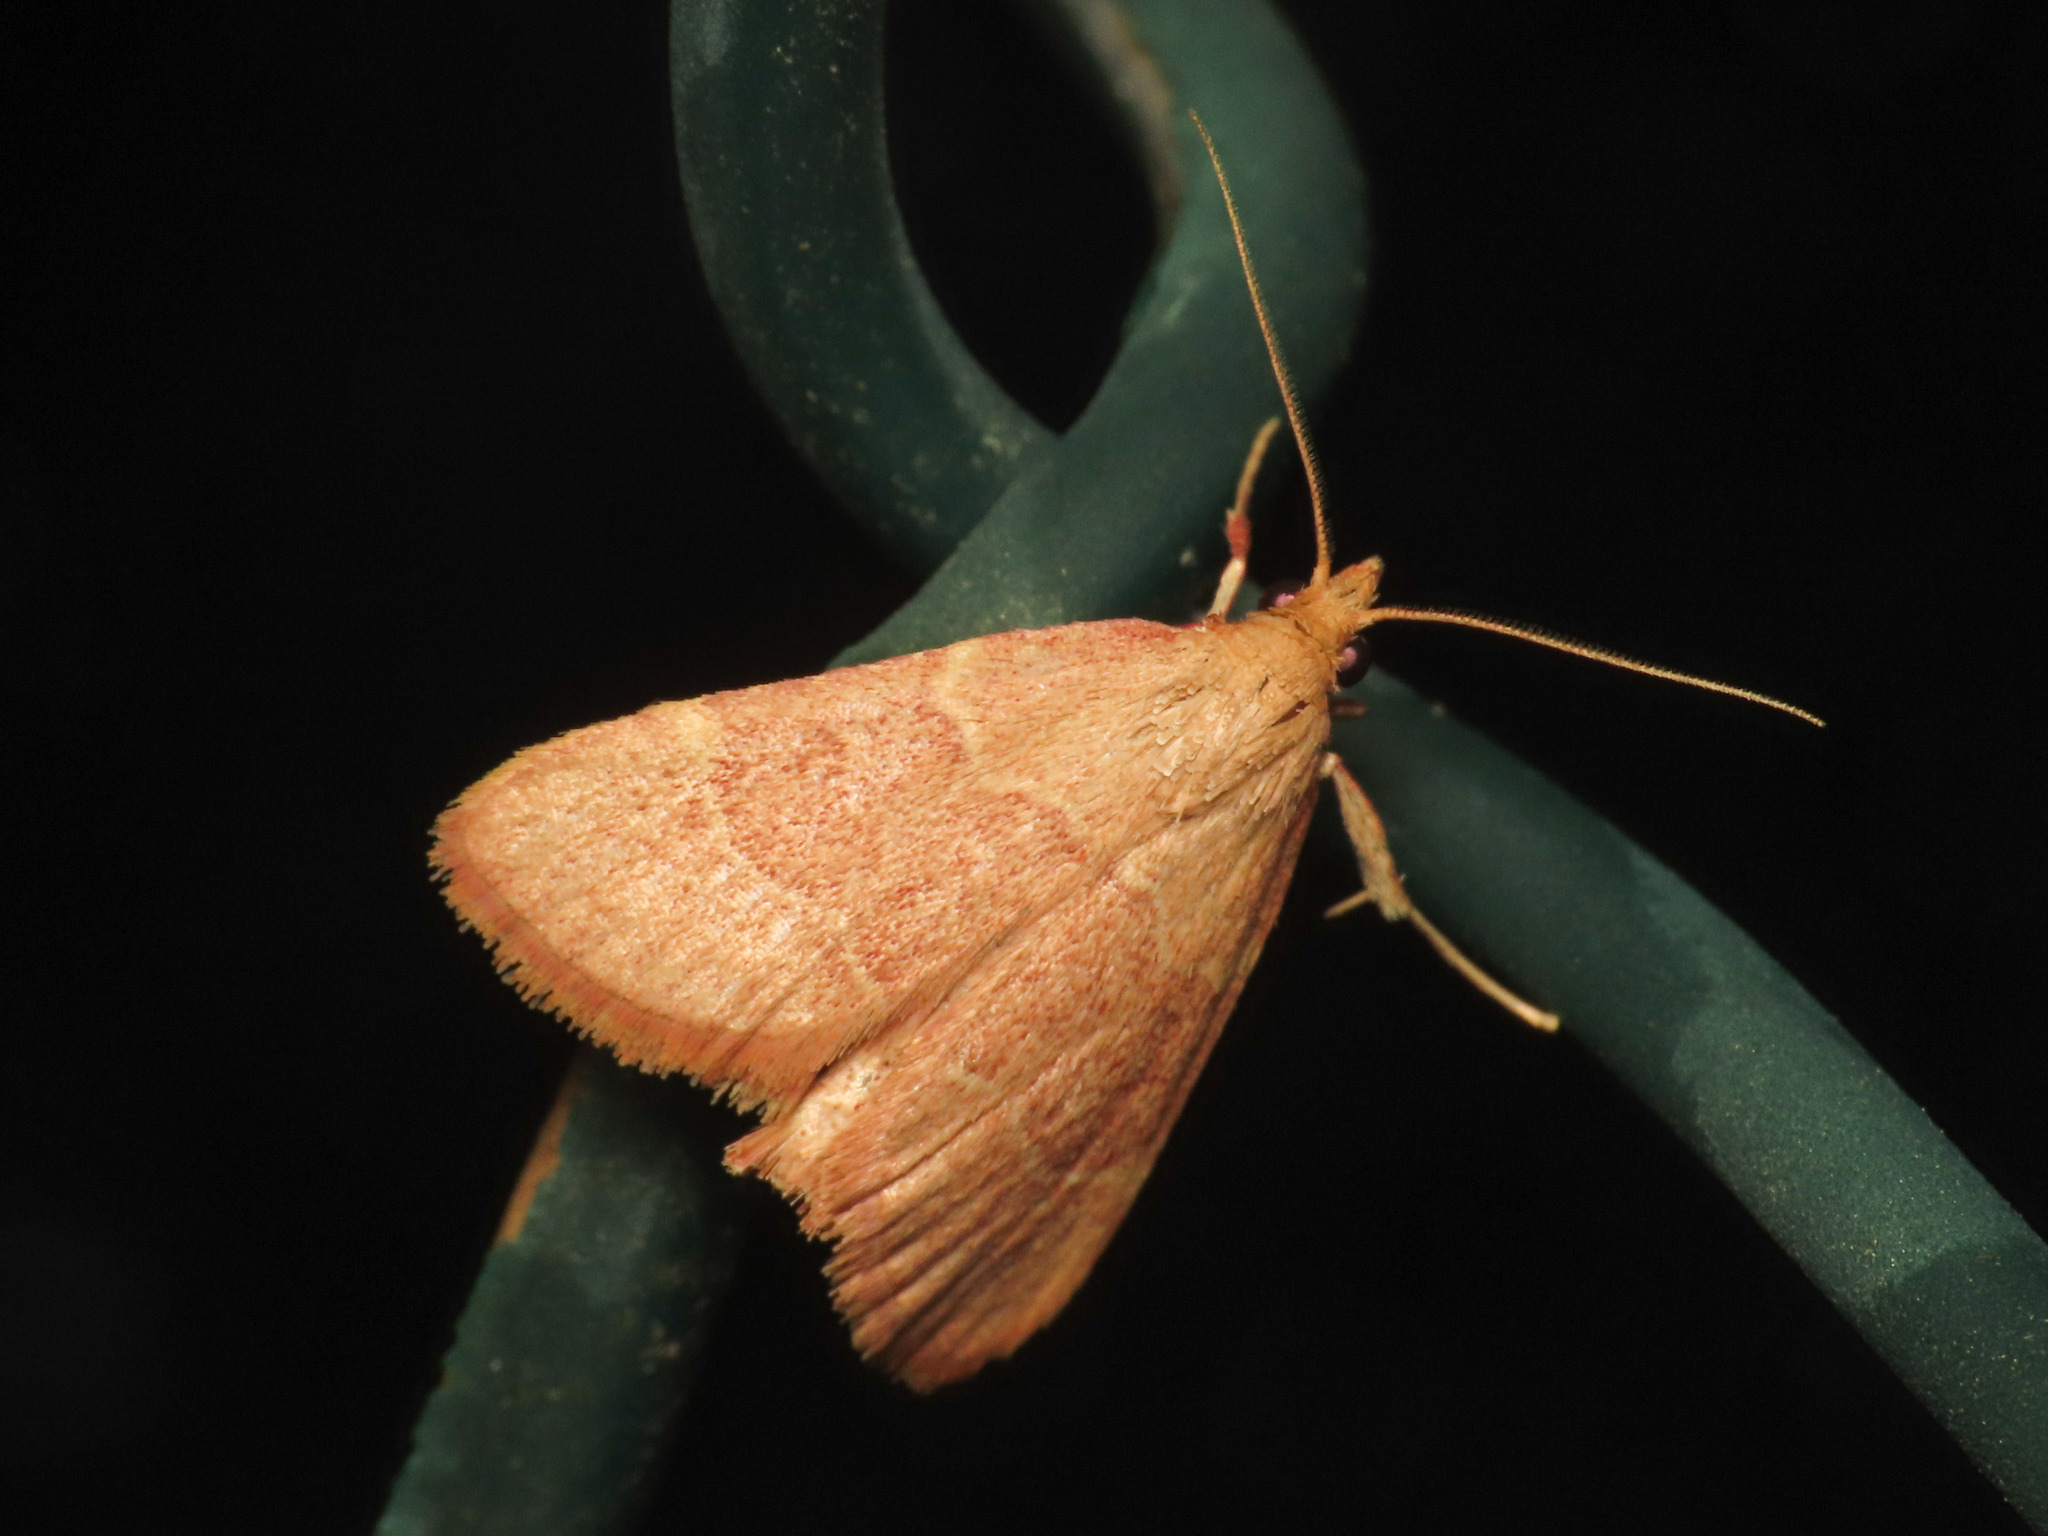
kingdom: Animalia
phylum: Arthropoda
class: Insecta
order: Lepidoptera
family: Pyralidae
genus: Hypsopygia
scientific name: Hypsopygia incarnatalis
